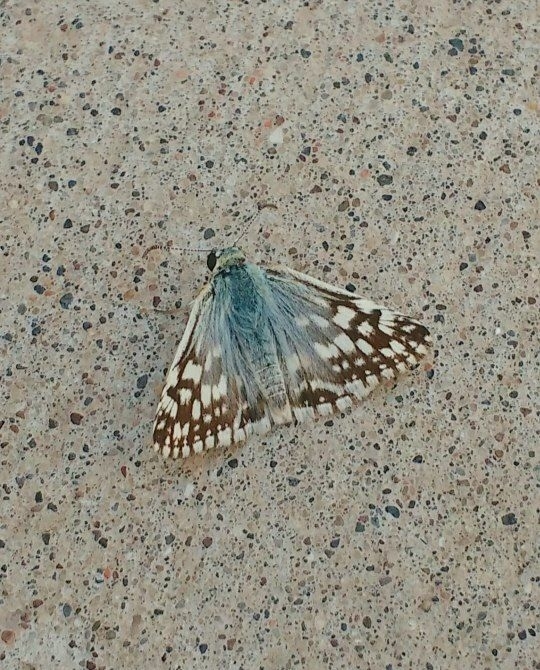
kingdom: Animalia
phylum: Arthropoda
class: Insecta
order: Lepidoptera
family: Hesperiidae
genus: Heliopetes
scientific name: Heliopetes americanus
